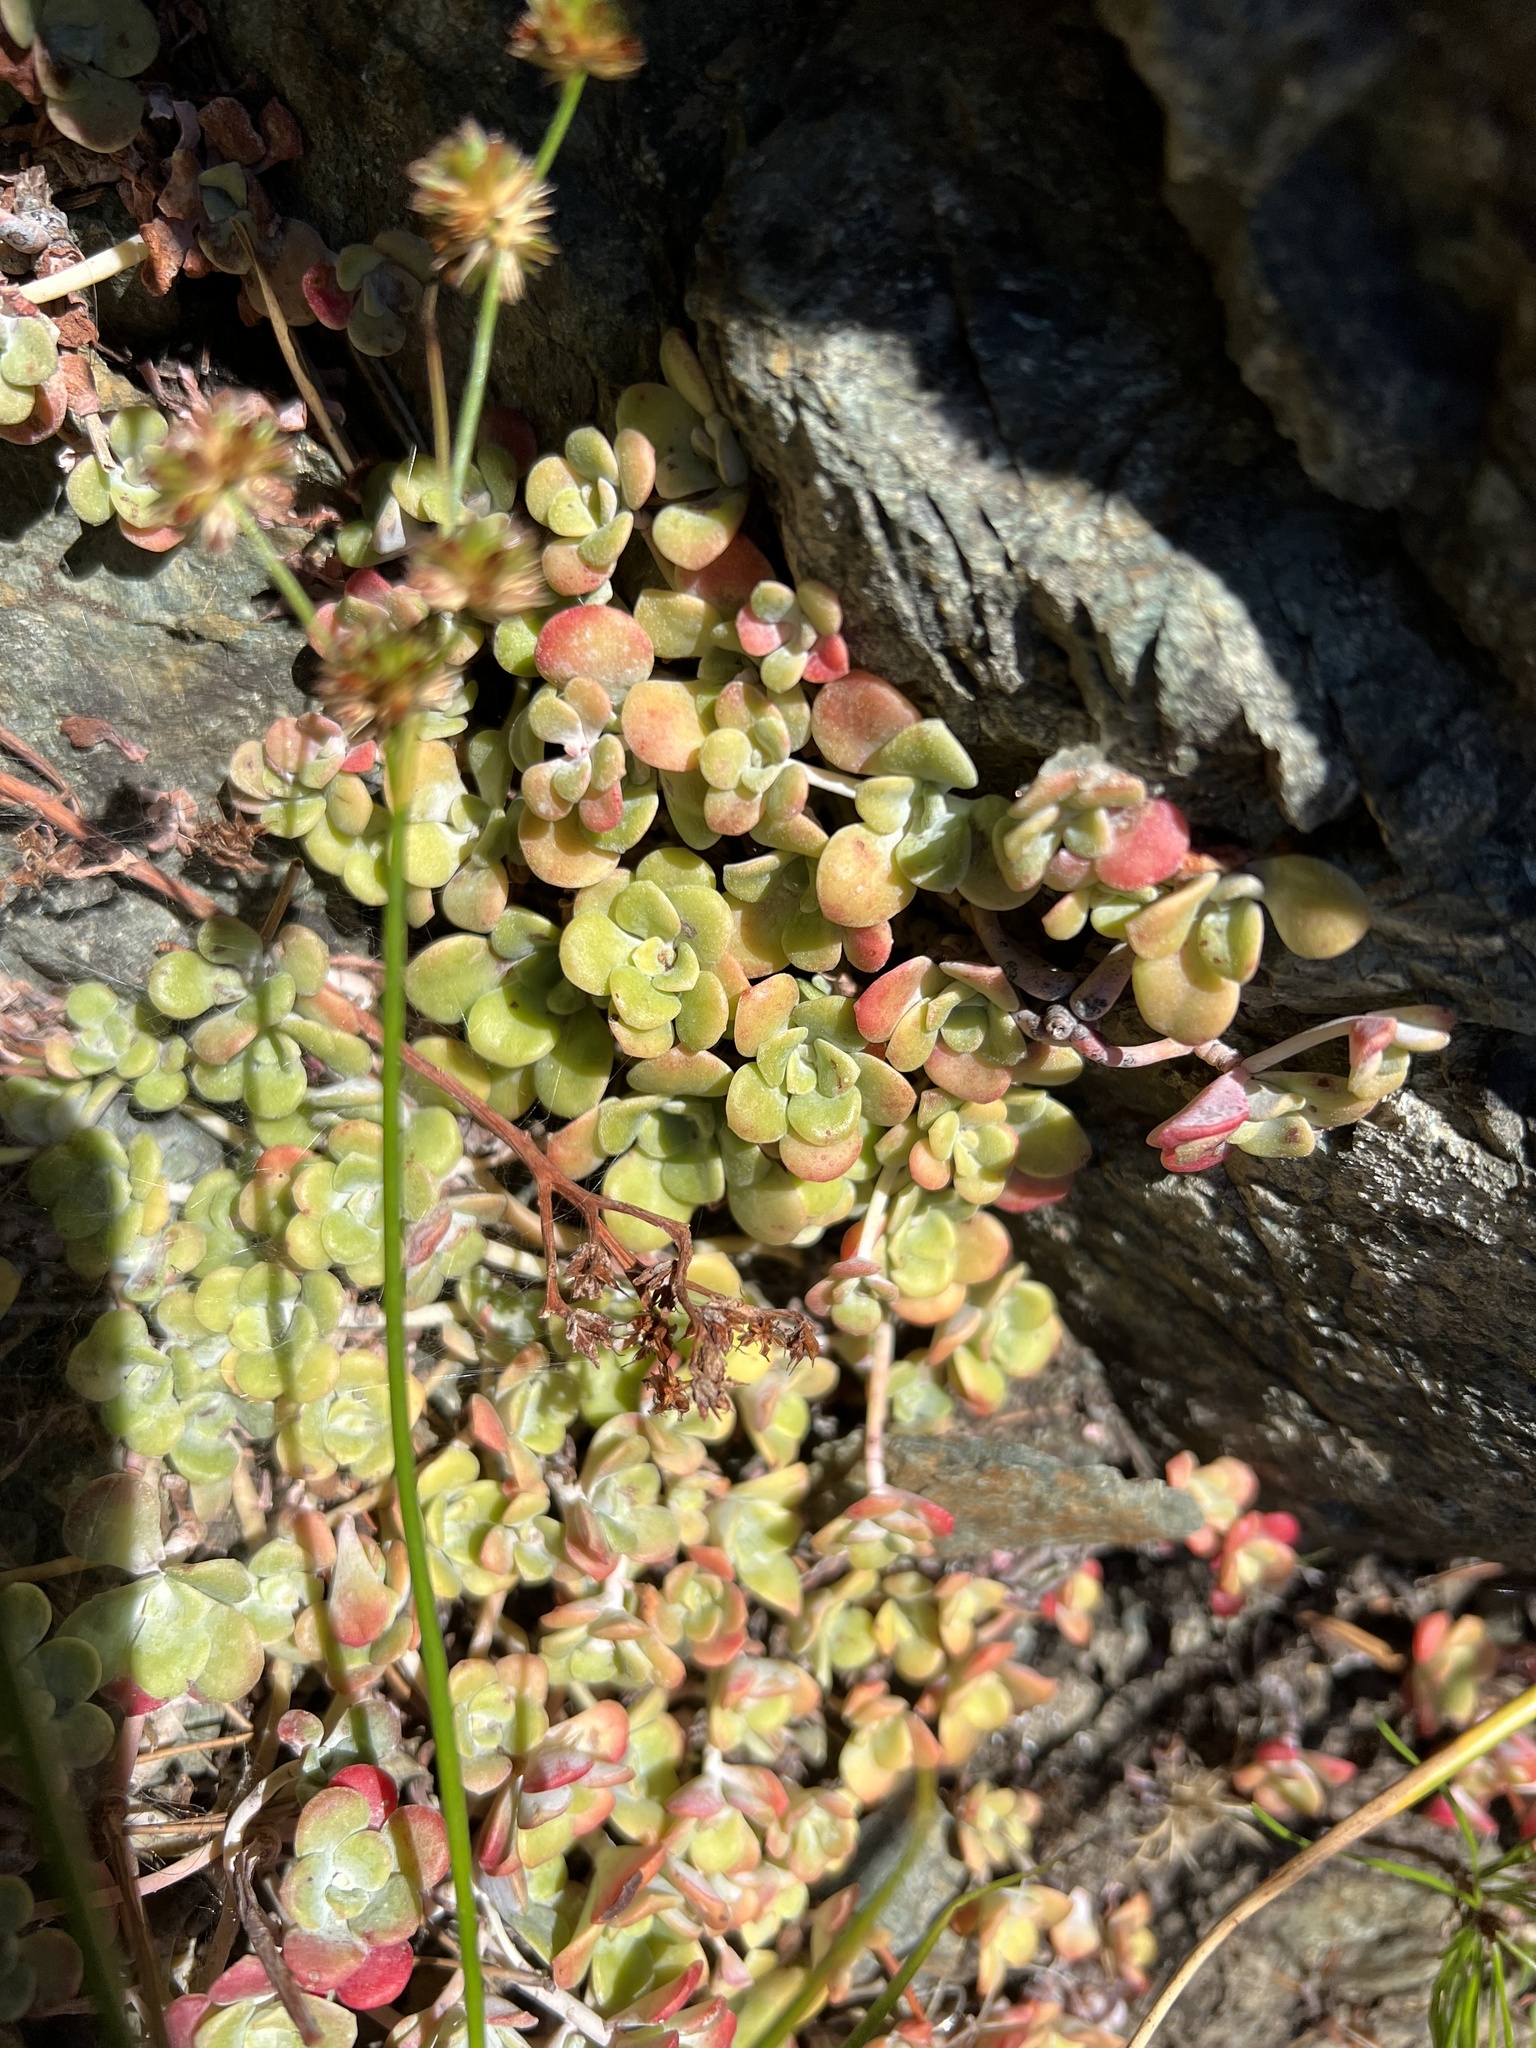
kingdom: Plantae
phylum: Tracheophyta
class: Magnoliopsida
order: Saxifragales
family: Crassulaceae
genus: Sedum
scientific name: Sedum spathulifolium
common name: Colorado stonecrop
